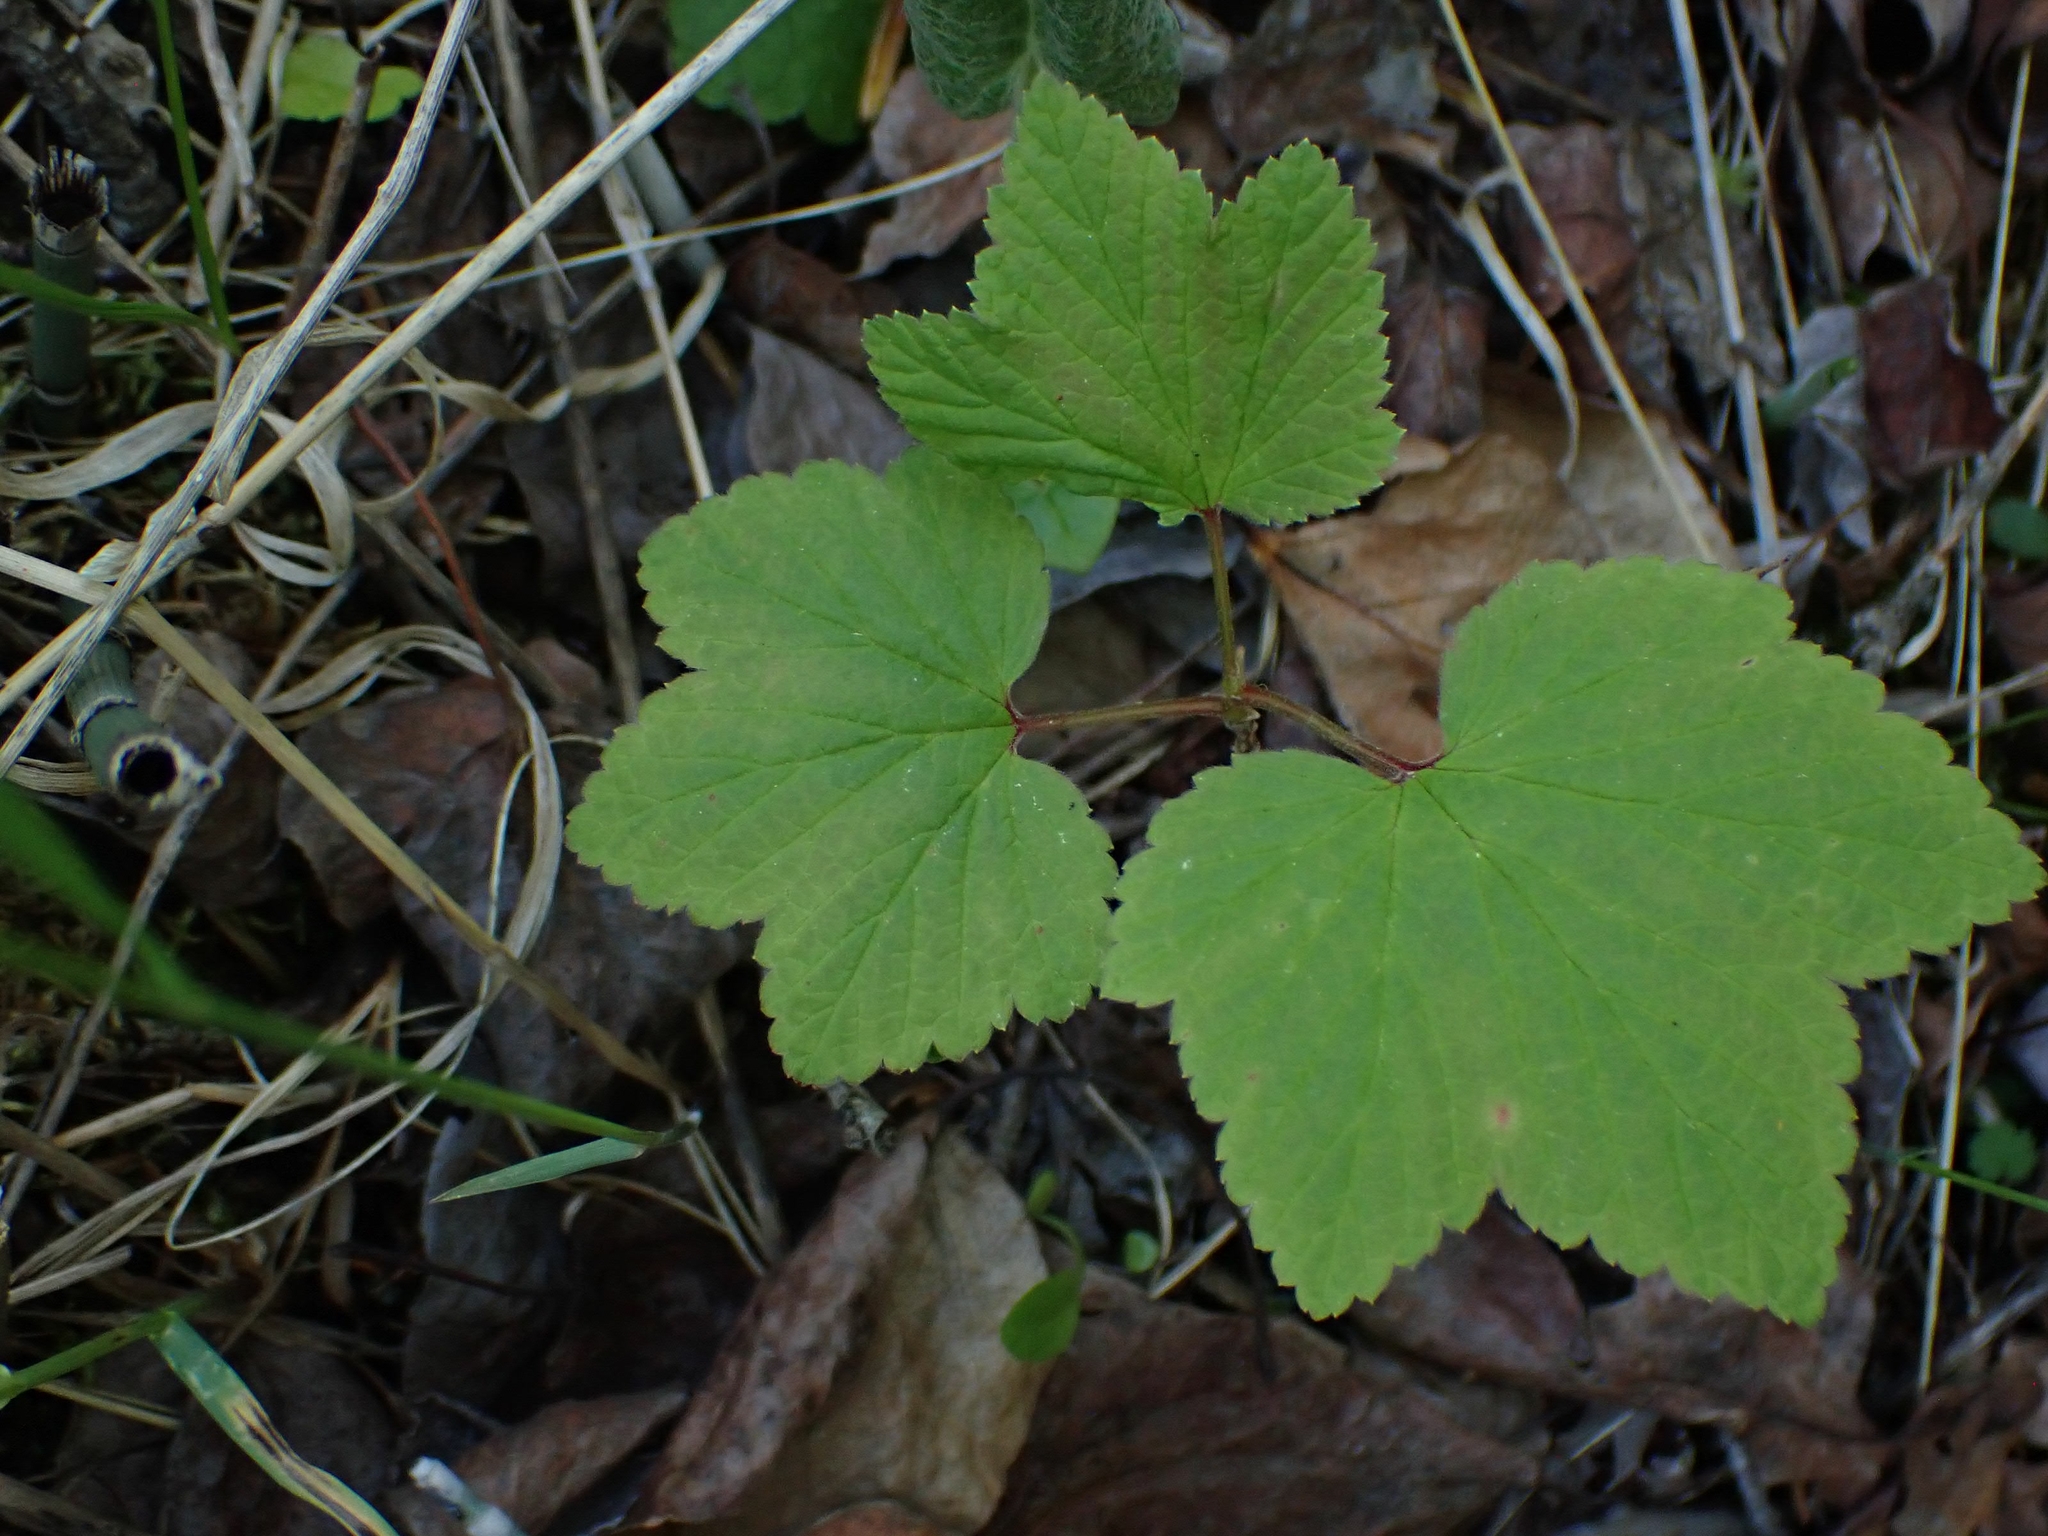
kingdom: Plantae
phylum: Tracheophyta
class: Magnoliopsida
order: Saxifragales
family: Grossulariaceae
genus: Ribes
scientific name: Ribes triste
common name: Swamp red currant
